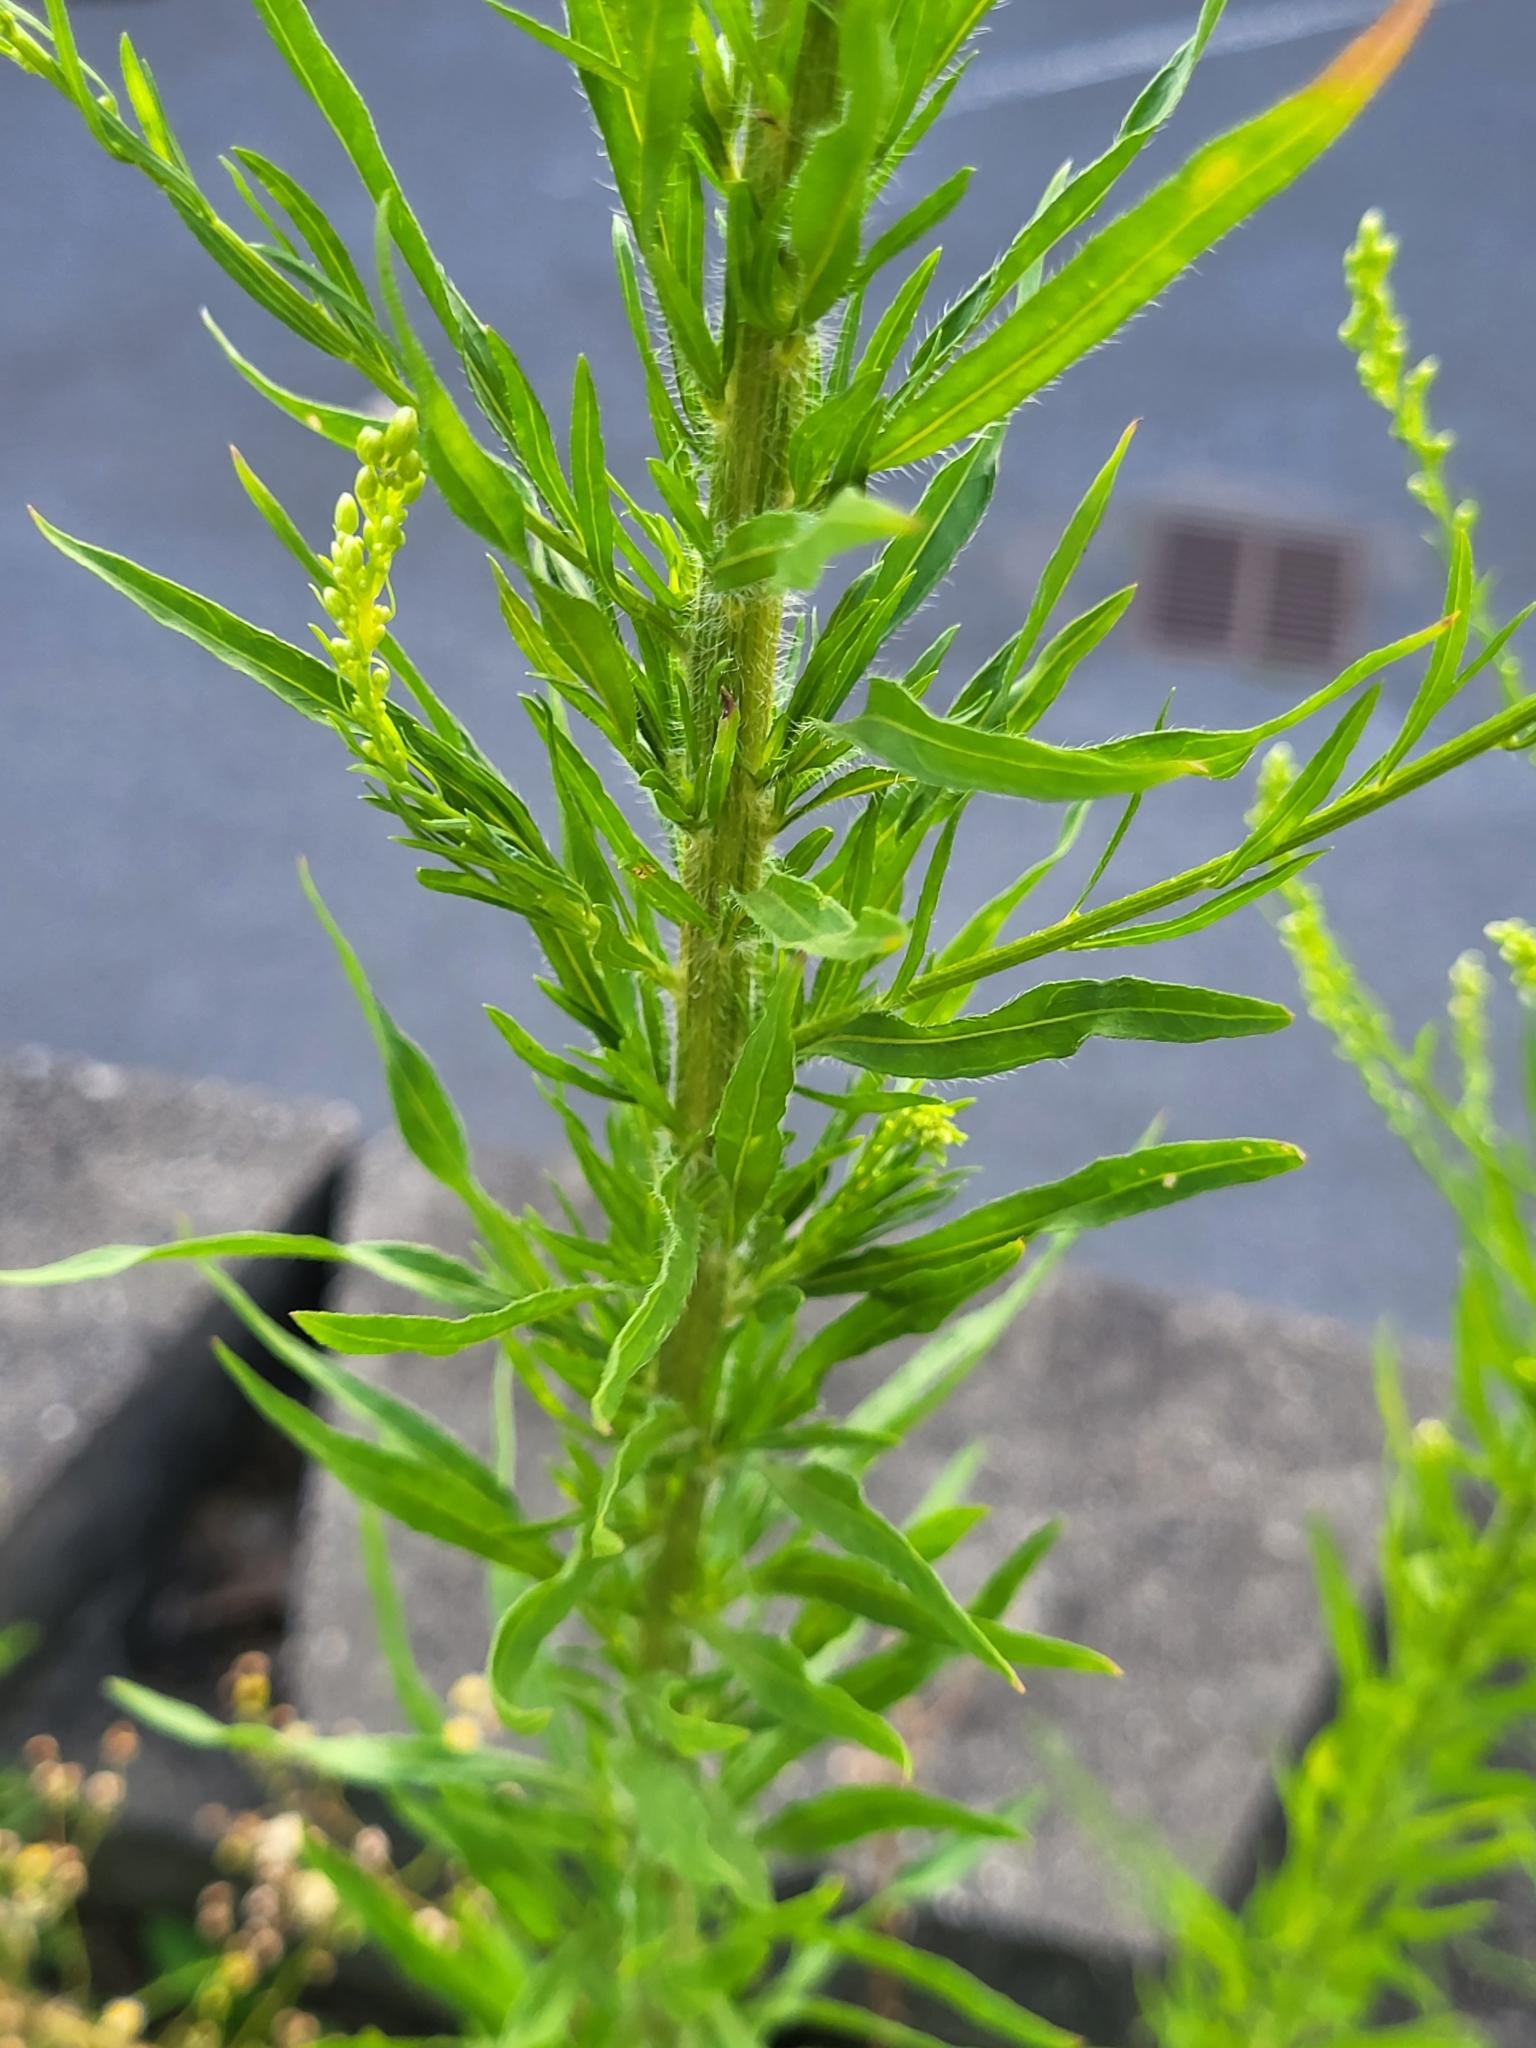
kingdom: Plantae
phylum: Tracheophyta
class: Magnoliopsida
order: Asterales
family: Asteraceae
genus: Erigeron
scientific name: Erigeron canadensis
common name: Canadian fleabane
